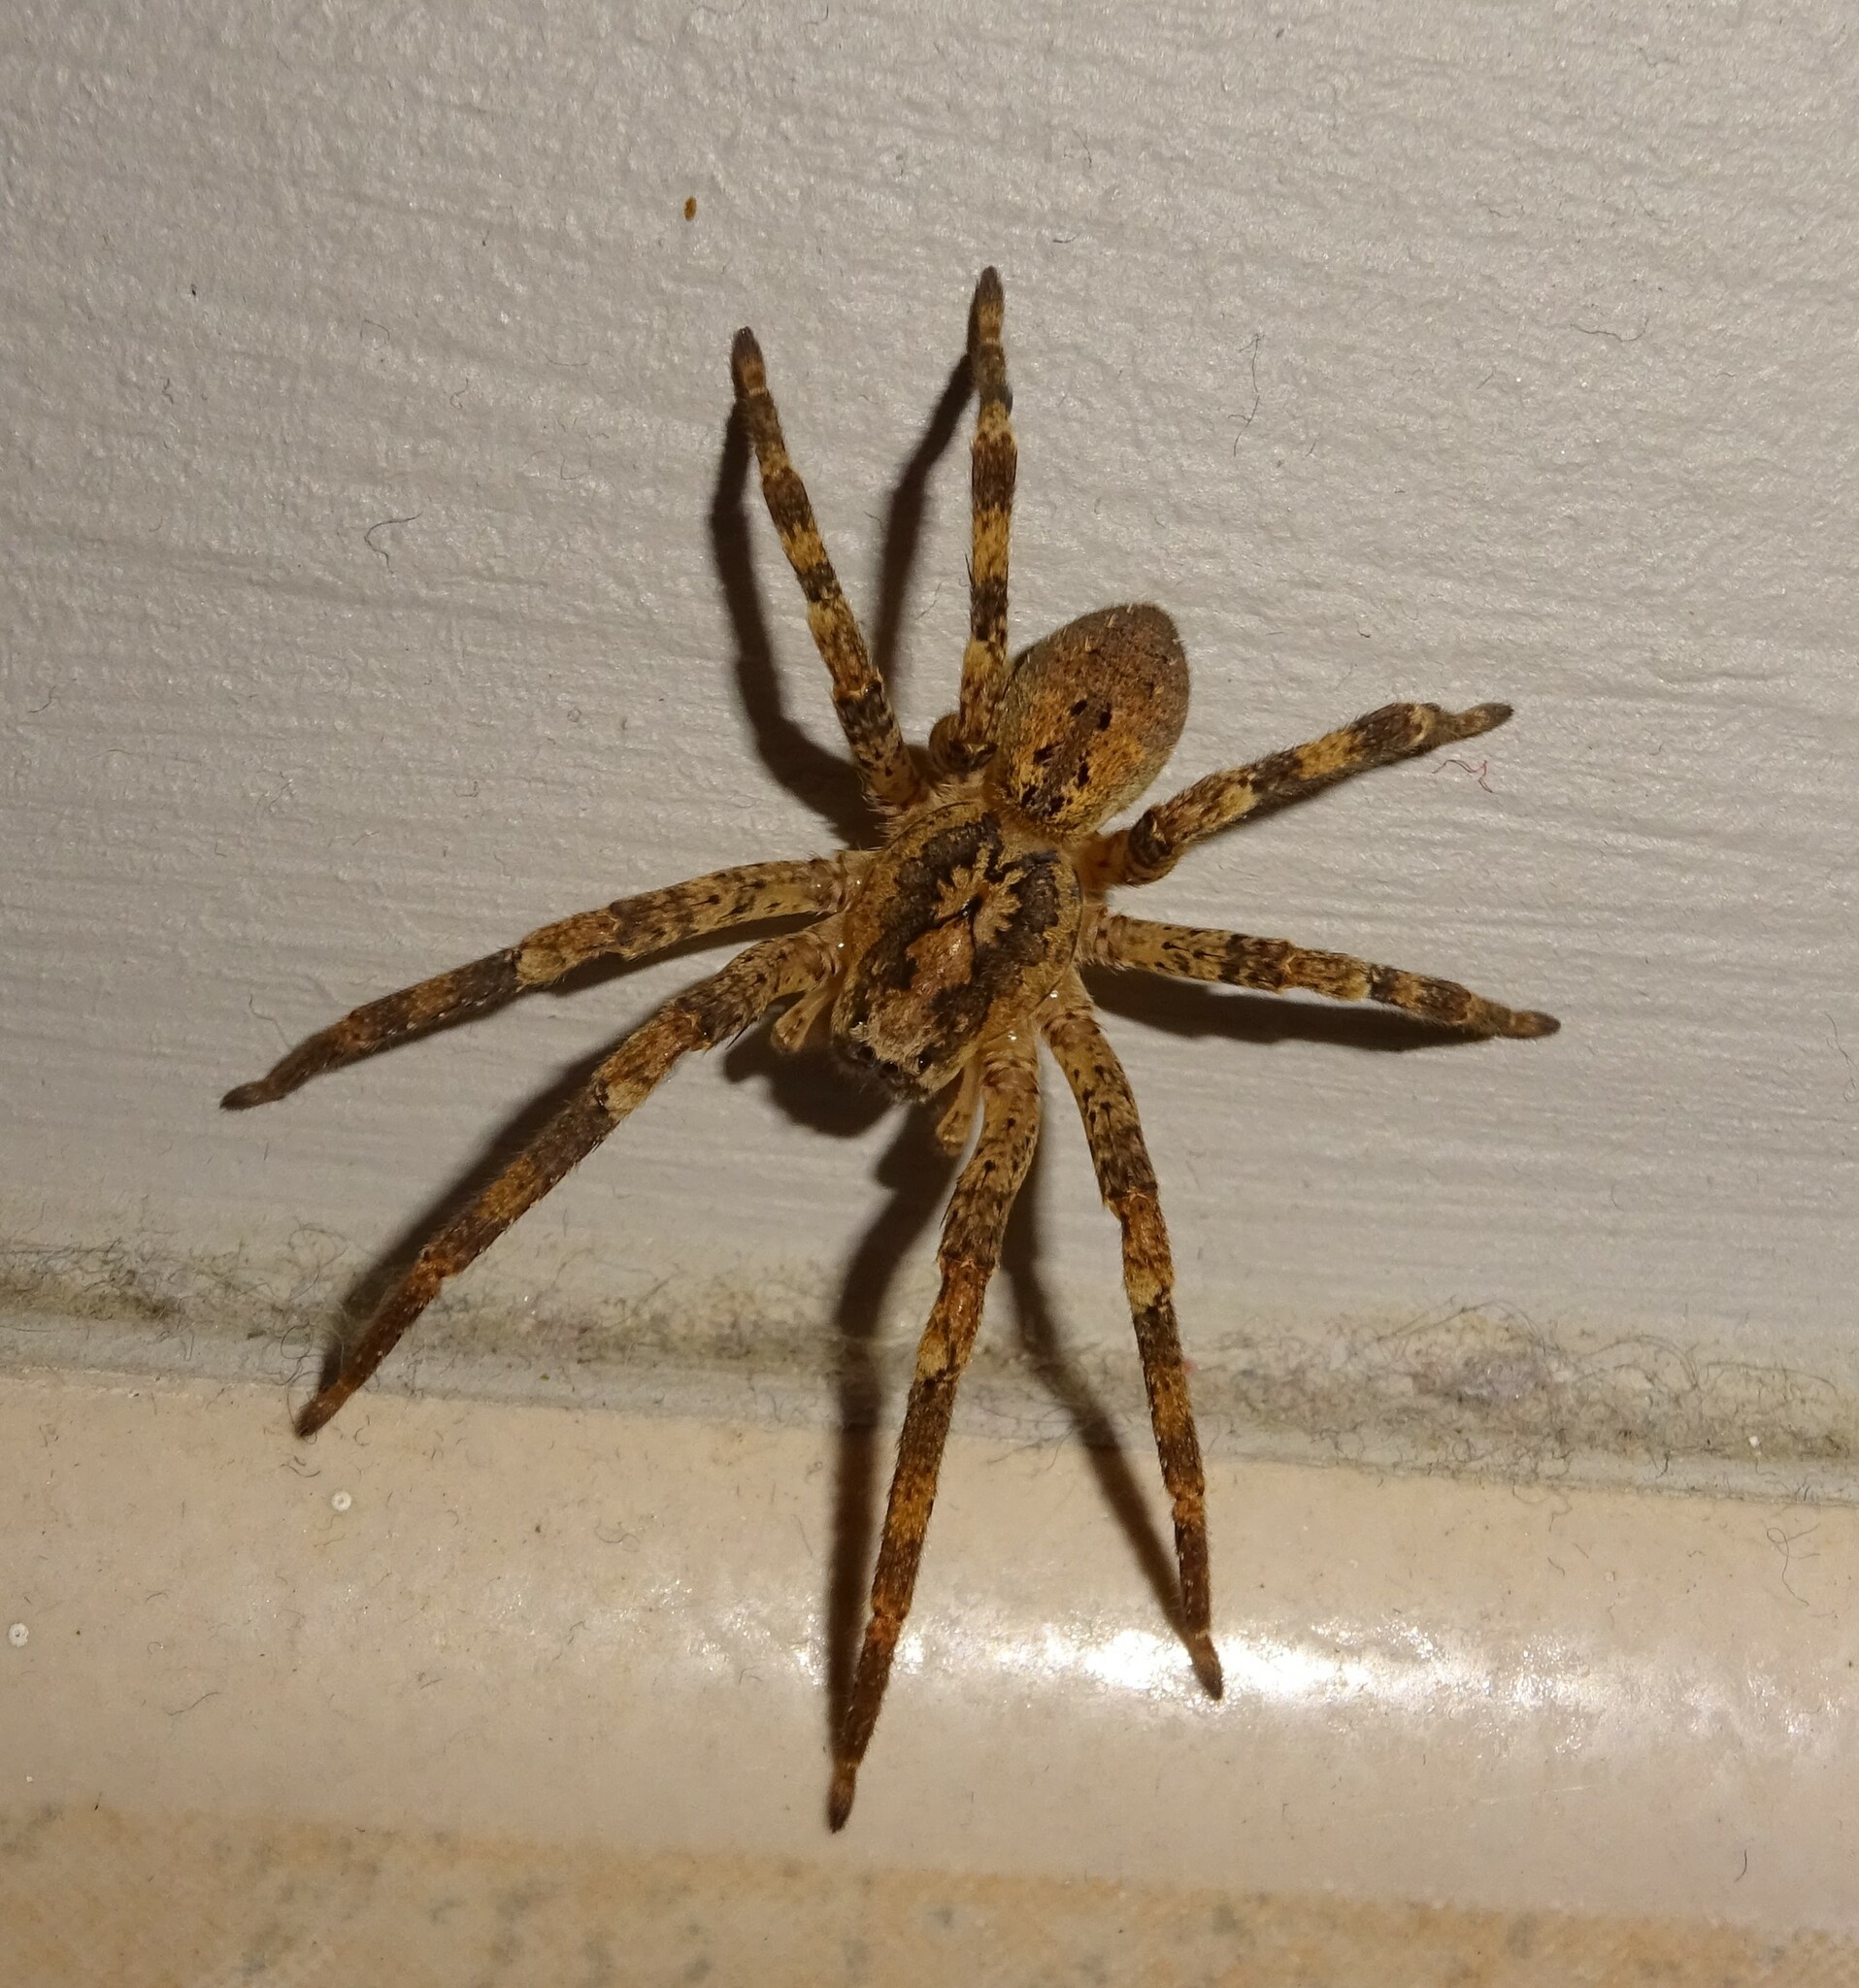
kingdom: Animalia
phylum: Arthropoda
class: Arachnida
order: Araneae
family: Zoropsidae
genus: Zoropsis
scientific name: Zoropsis spinimana
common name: Zoropsid spider
